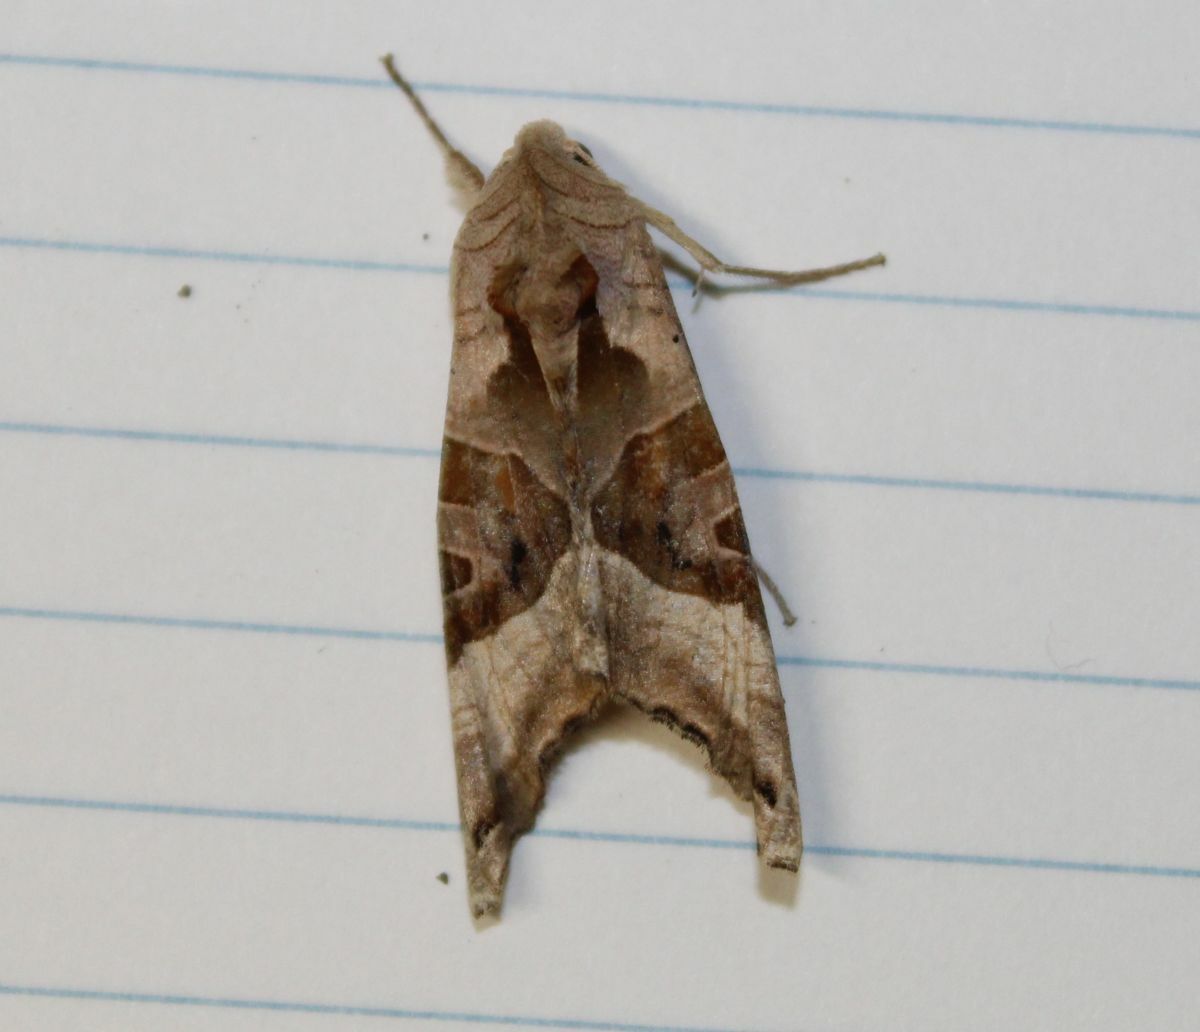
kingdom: Animalia
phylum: Arthropoda
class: Insecta
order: Lepidoptera
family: Noctuidae
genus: Phlogophora
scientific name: Phlogophora meticulosa
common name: Angle shades
